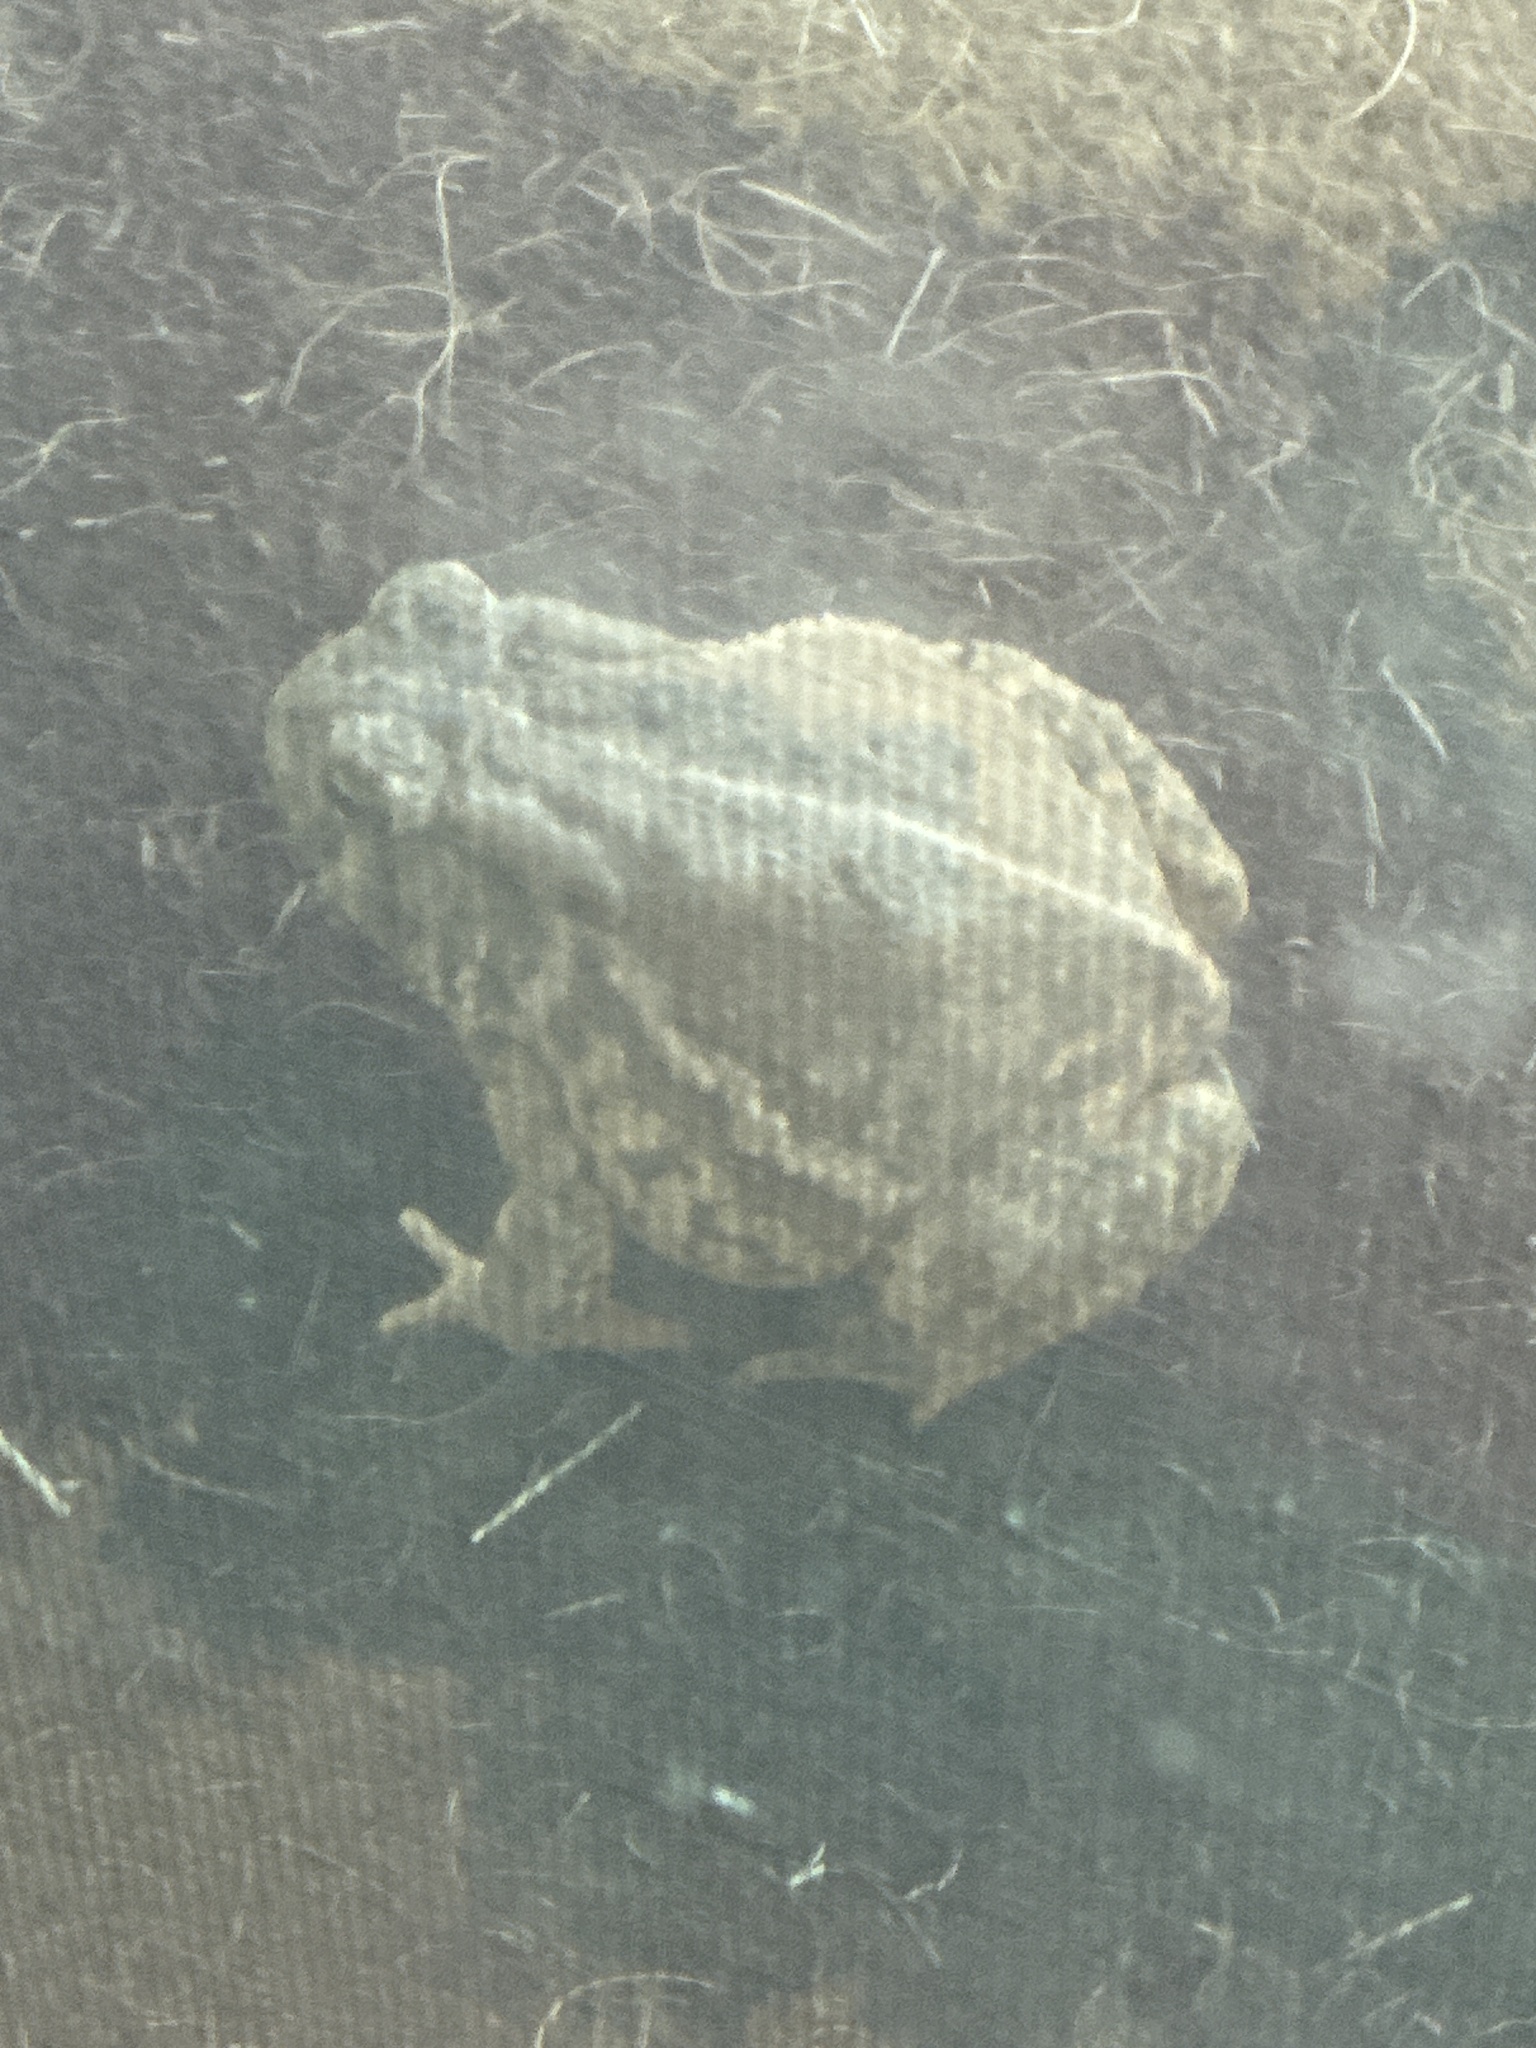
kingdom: Animalia
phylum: Chordata
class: Amphibia
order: Anura
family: Bufonidae
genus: Anaxyrus
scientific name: Anaxyrus woodhousii
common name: Woodhouse's toad
